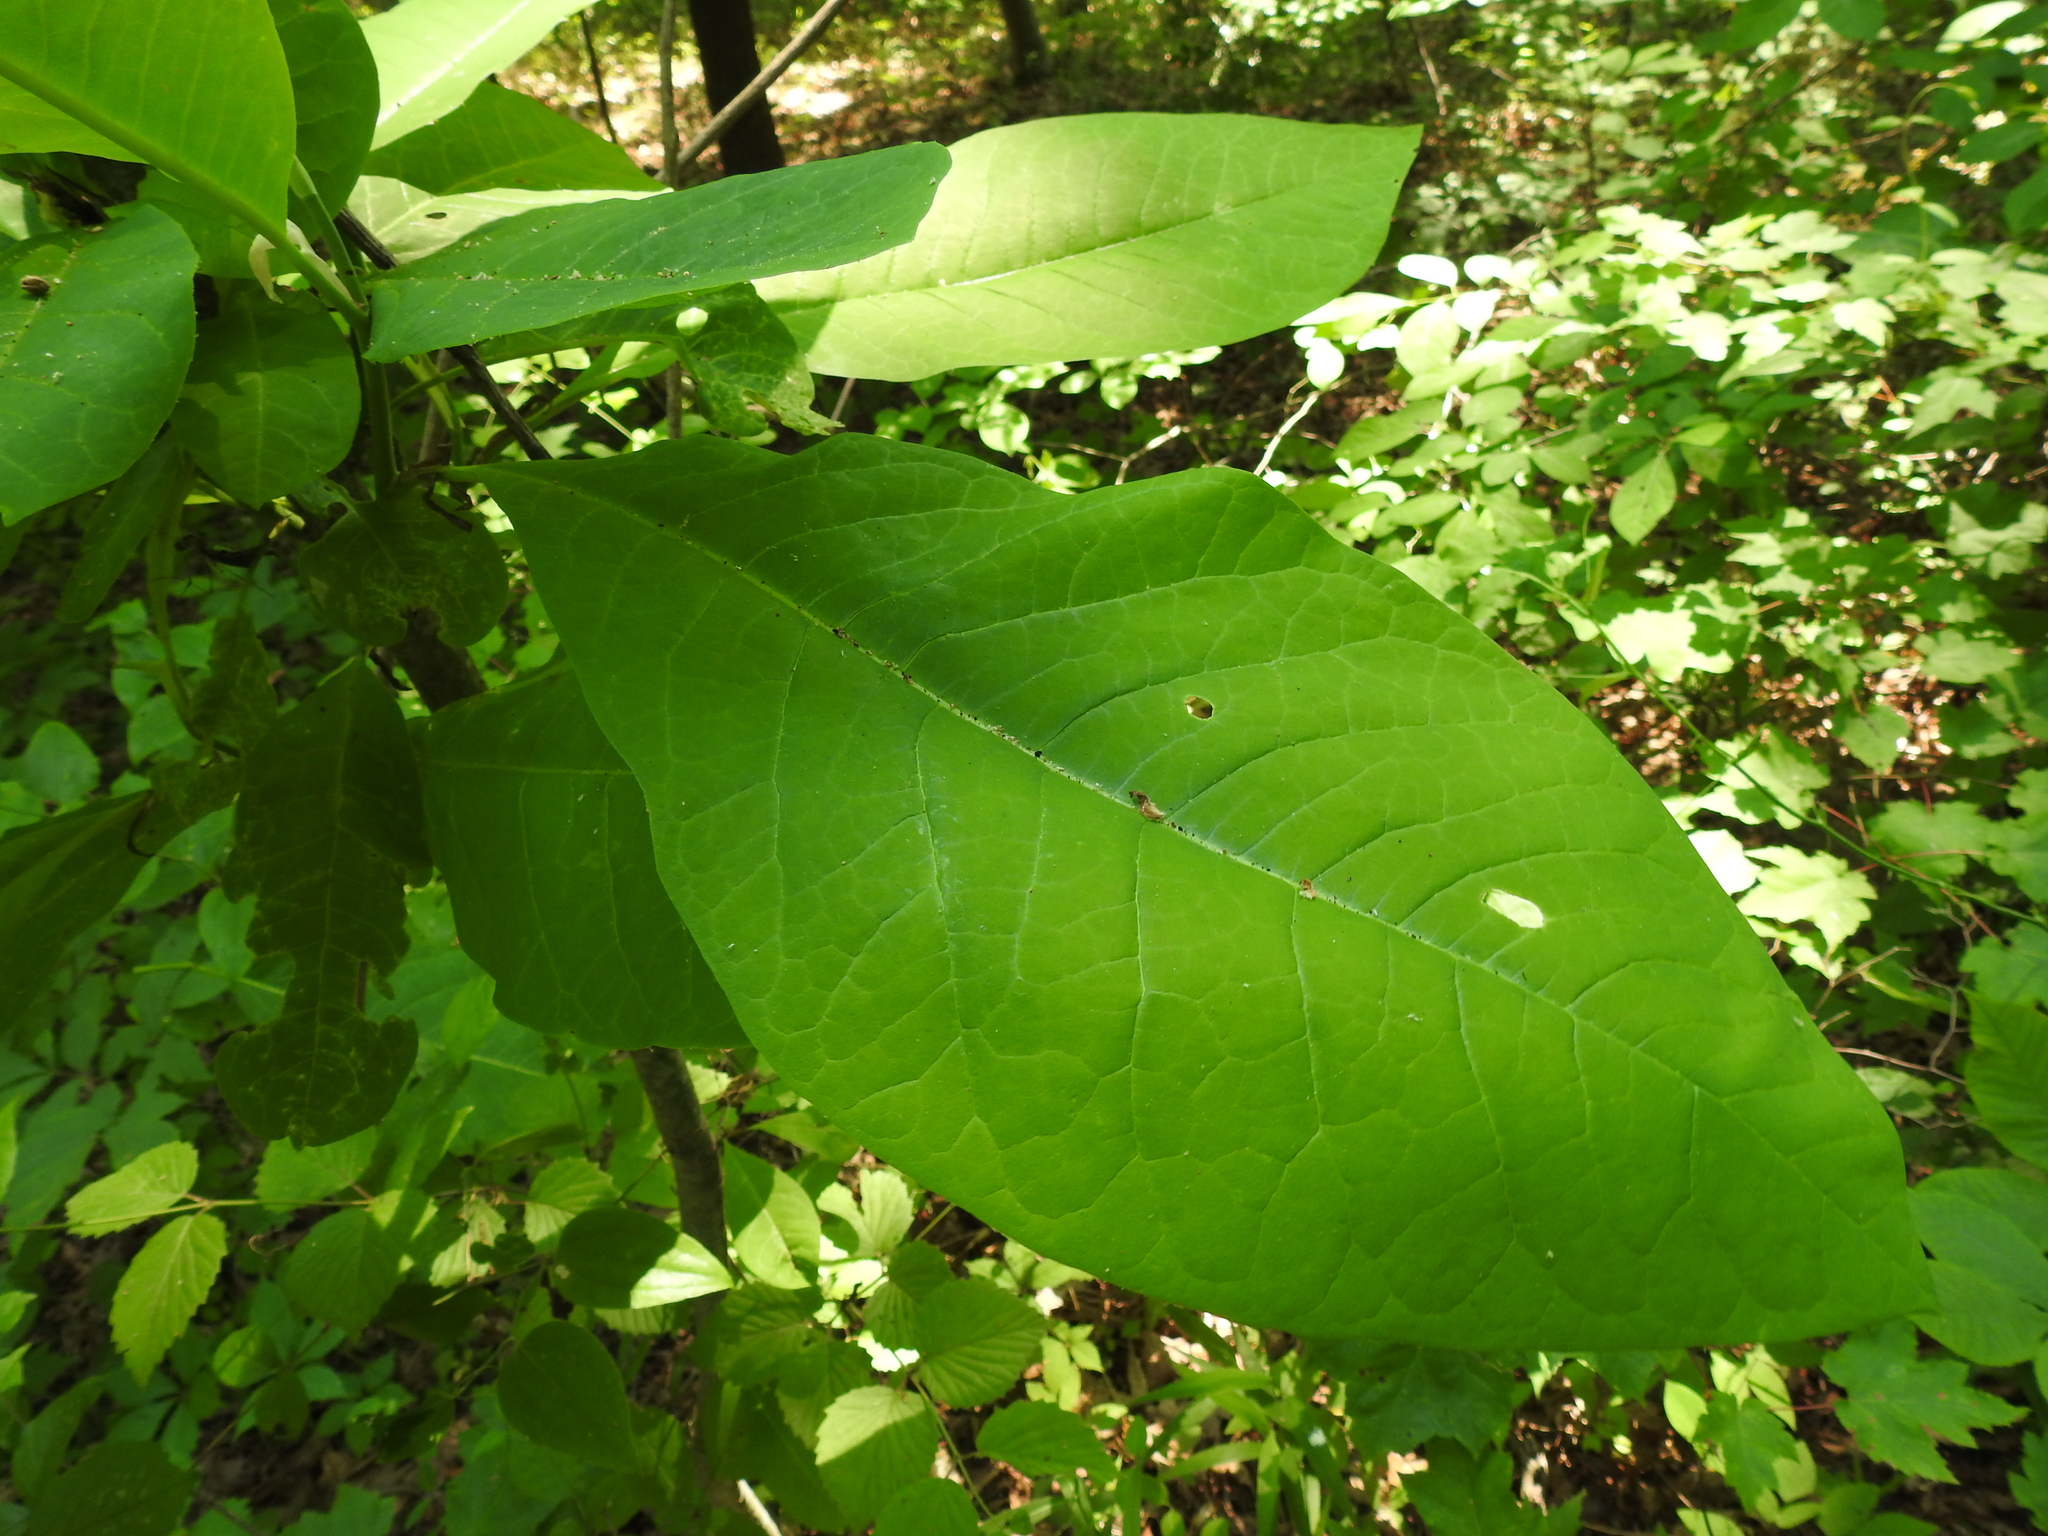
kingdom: Plantae
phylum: Tracheophyta
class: Magnoliopsida
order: Magnoliales
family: Magnoliaceae
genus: Magnolia
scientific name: Magnolia tripetala
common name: Umbrella magnolia
